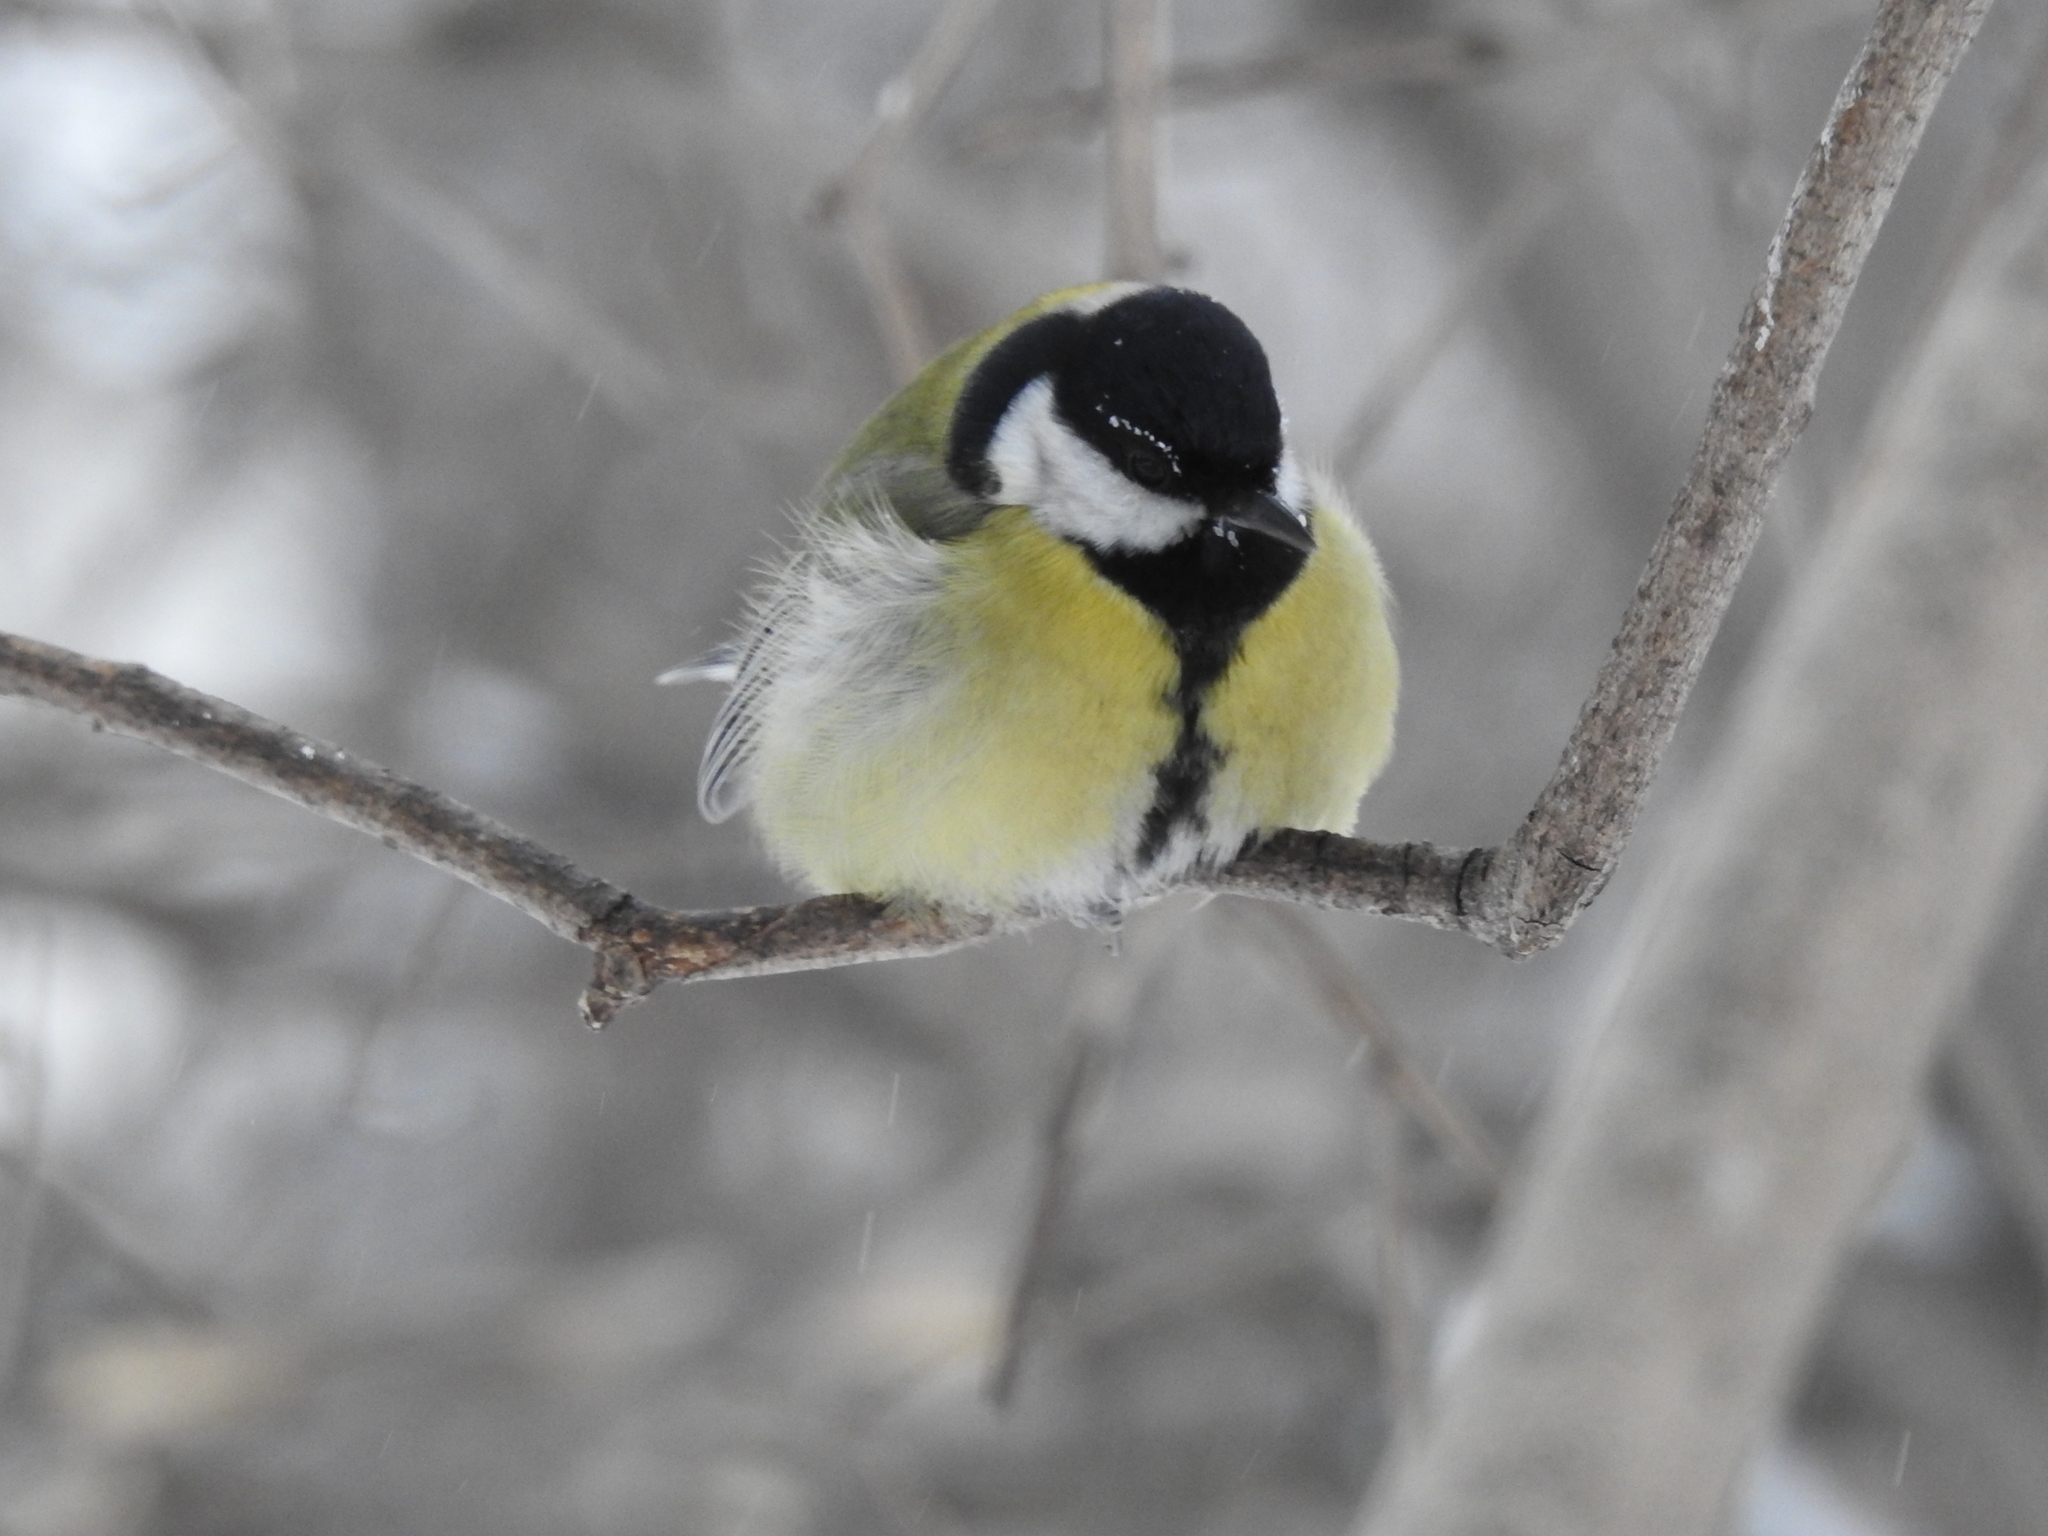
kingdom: Animalia
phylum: Chordata
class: Aves
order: Passeriformes
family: Paridae
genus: Parus
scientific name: Parus major
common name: Great tit
